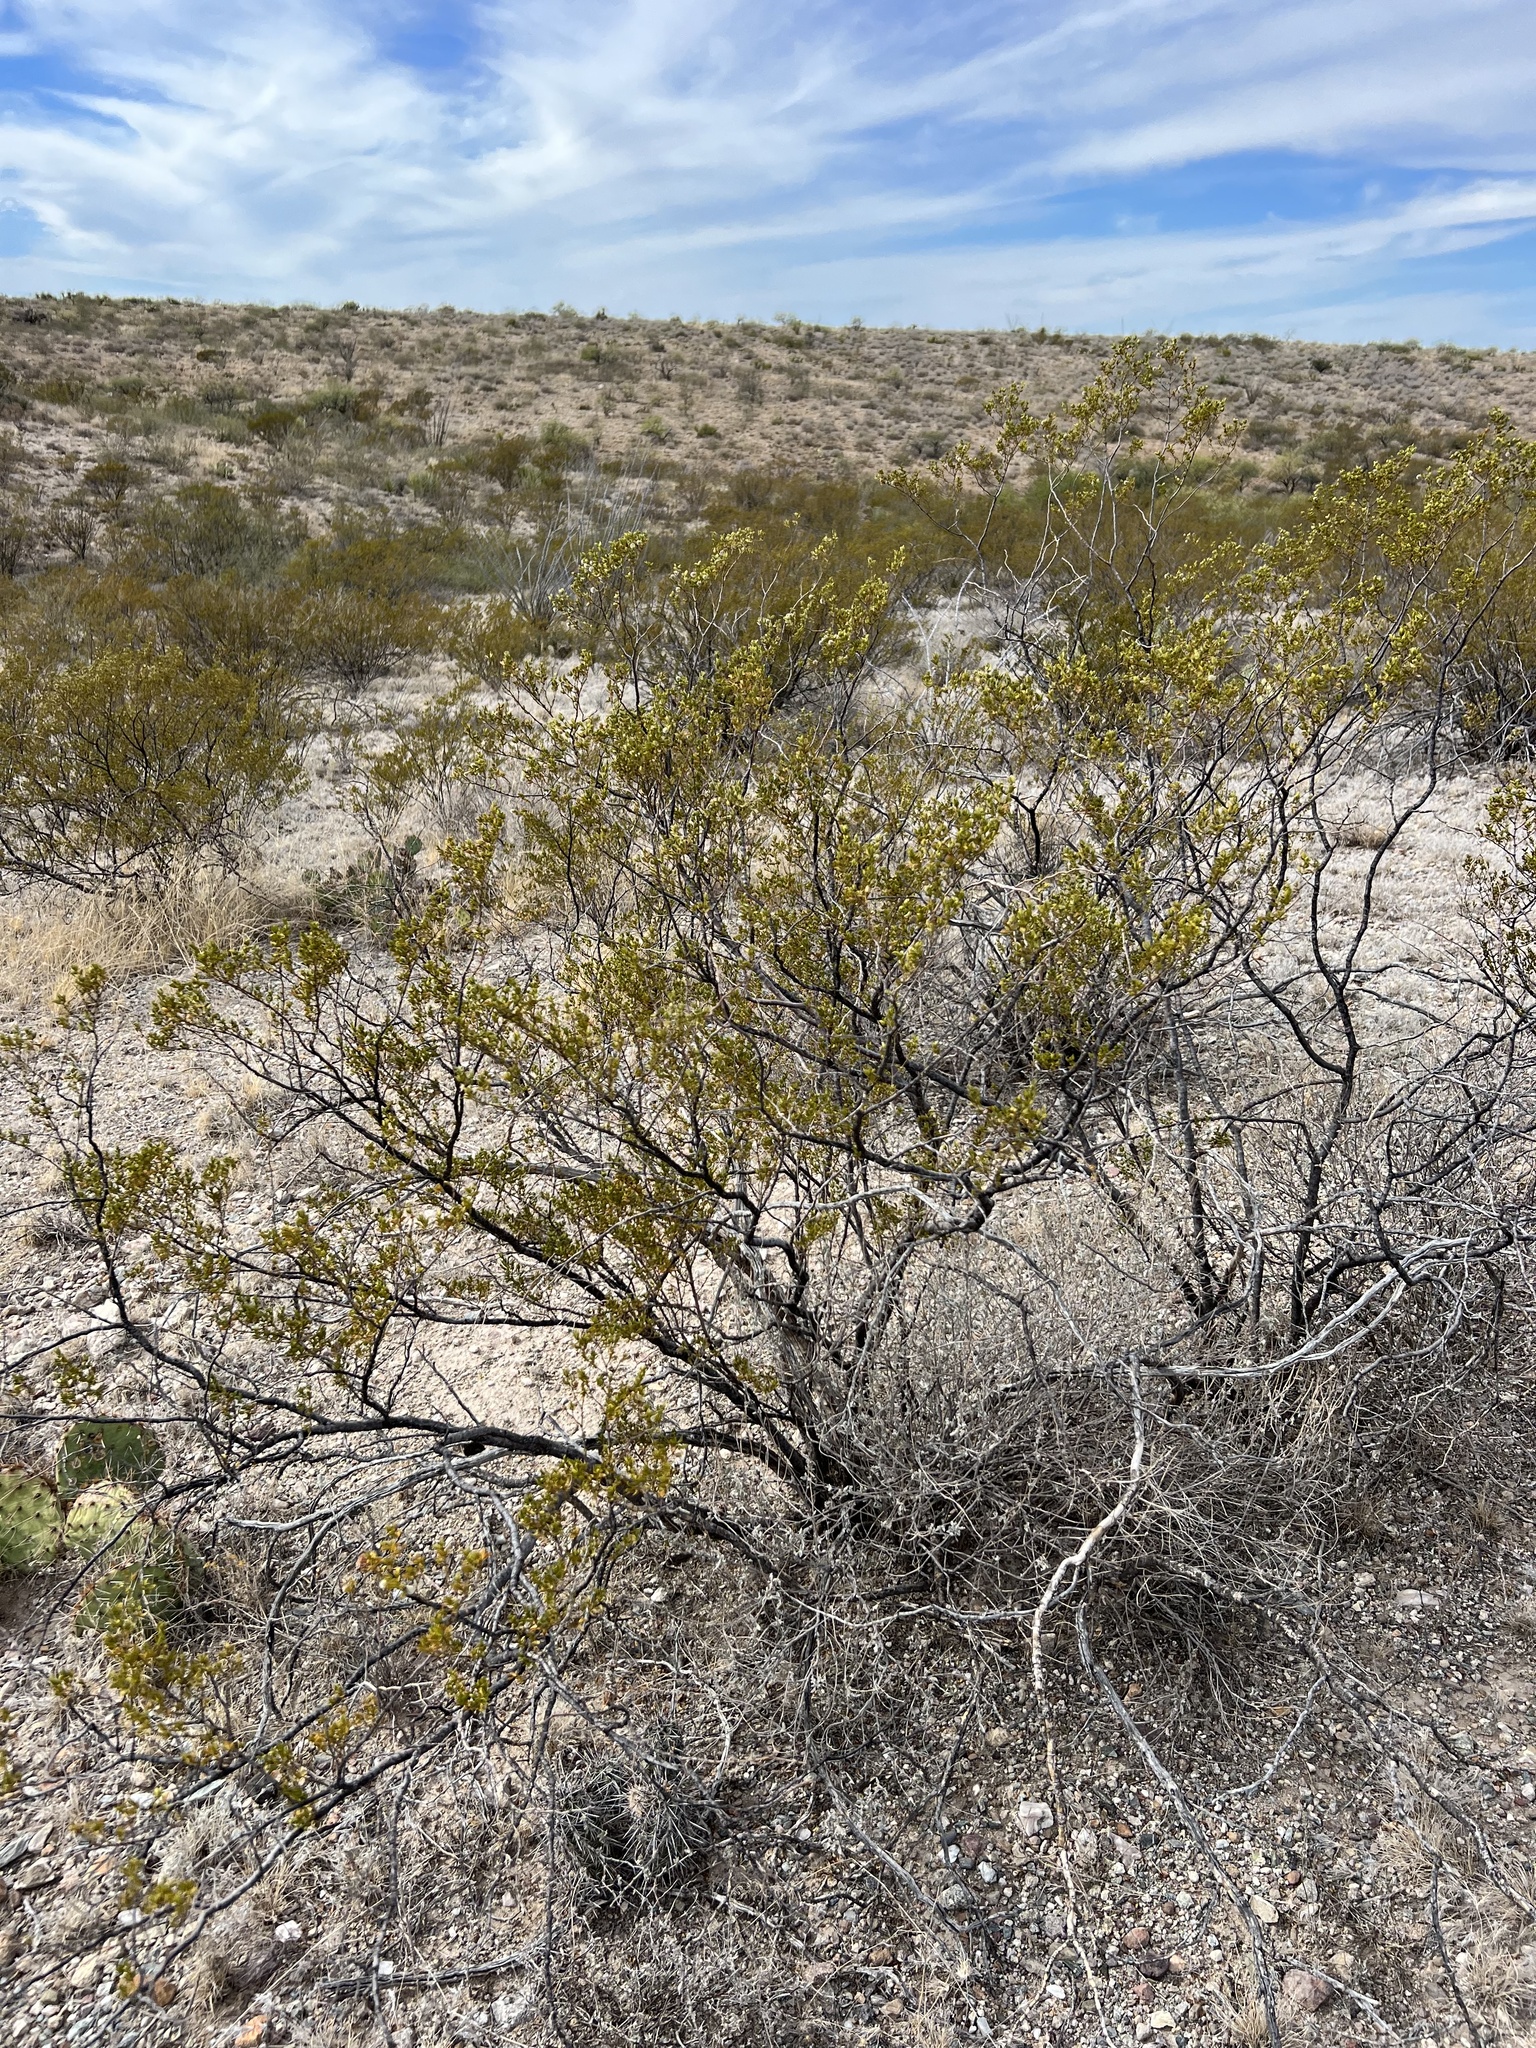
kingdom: Plantae
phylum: Tracheophyta
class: Magnoliopsida
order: Zygophyllales
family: Zygophyllaceae
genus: Larrea
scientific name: Larrea tridentata
